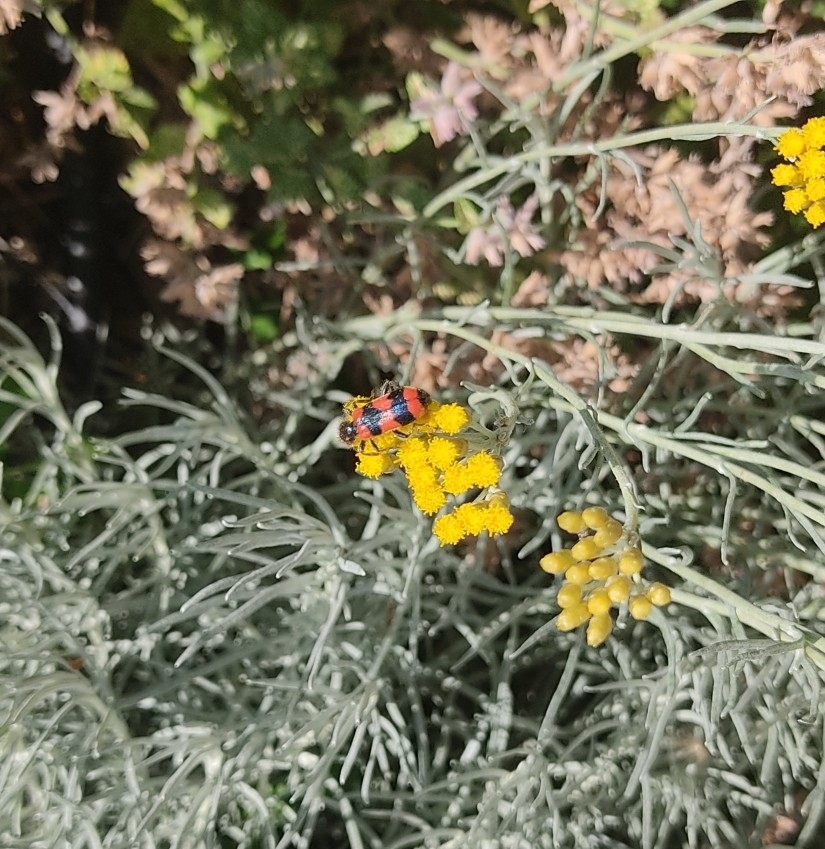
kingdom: Animalia
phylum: Arthropoda
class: Insecta
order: Coleoptera
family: Cleridae
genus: Trichodes
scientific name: Trichodes apiarius
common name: Bee-eating beetle
